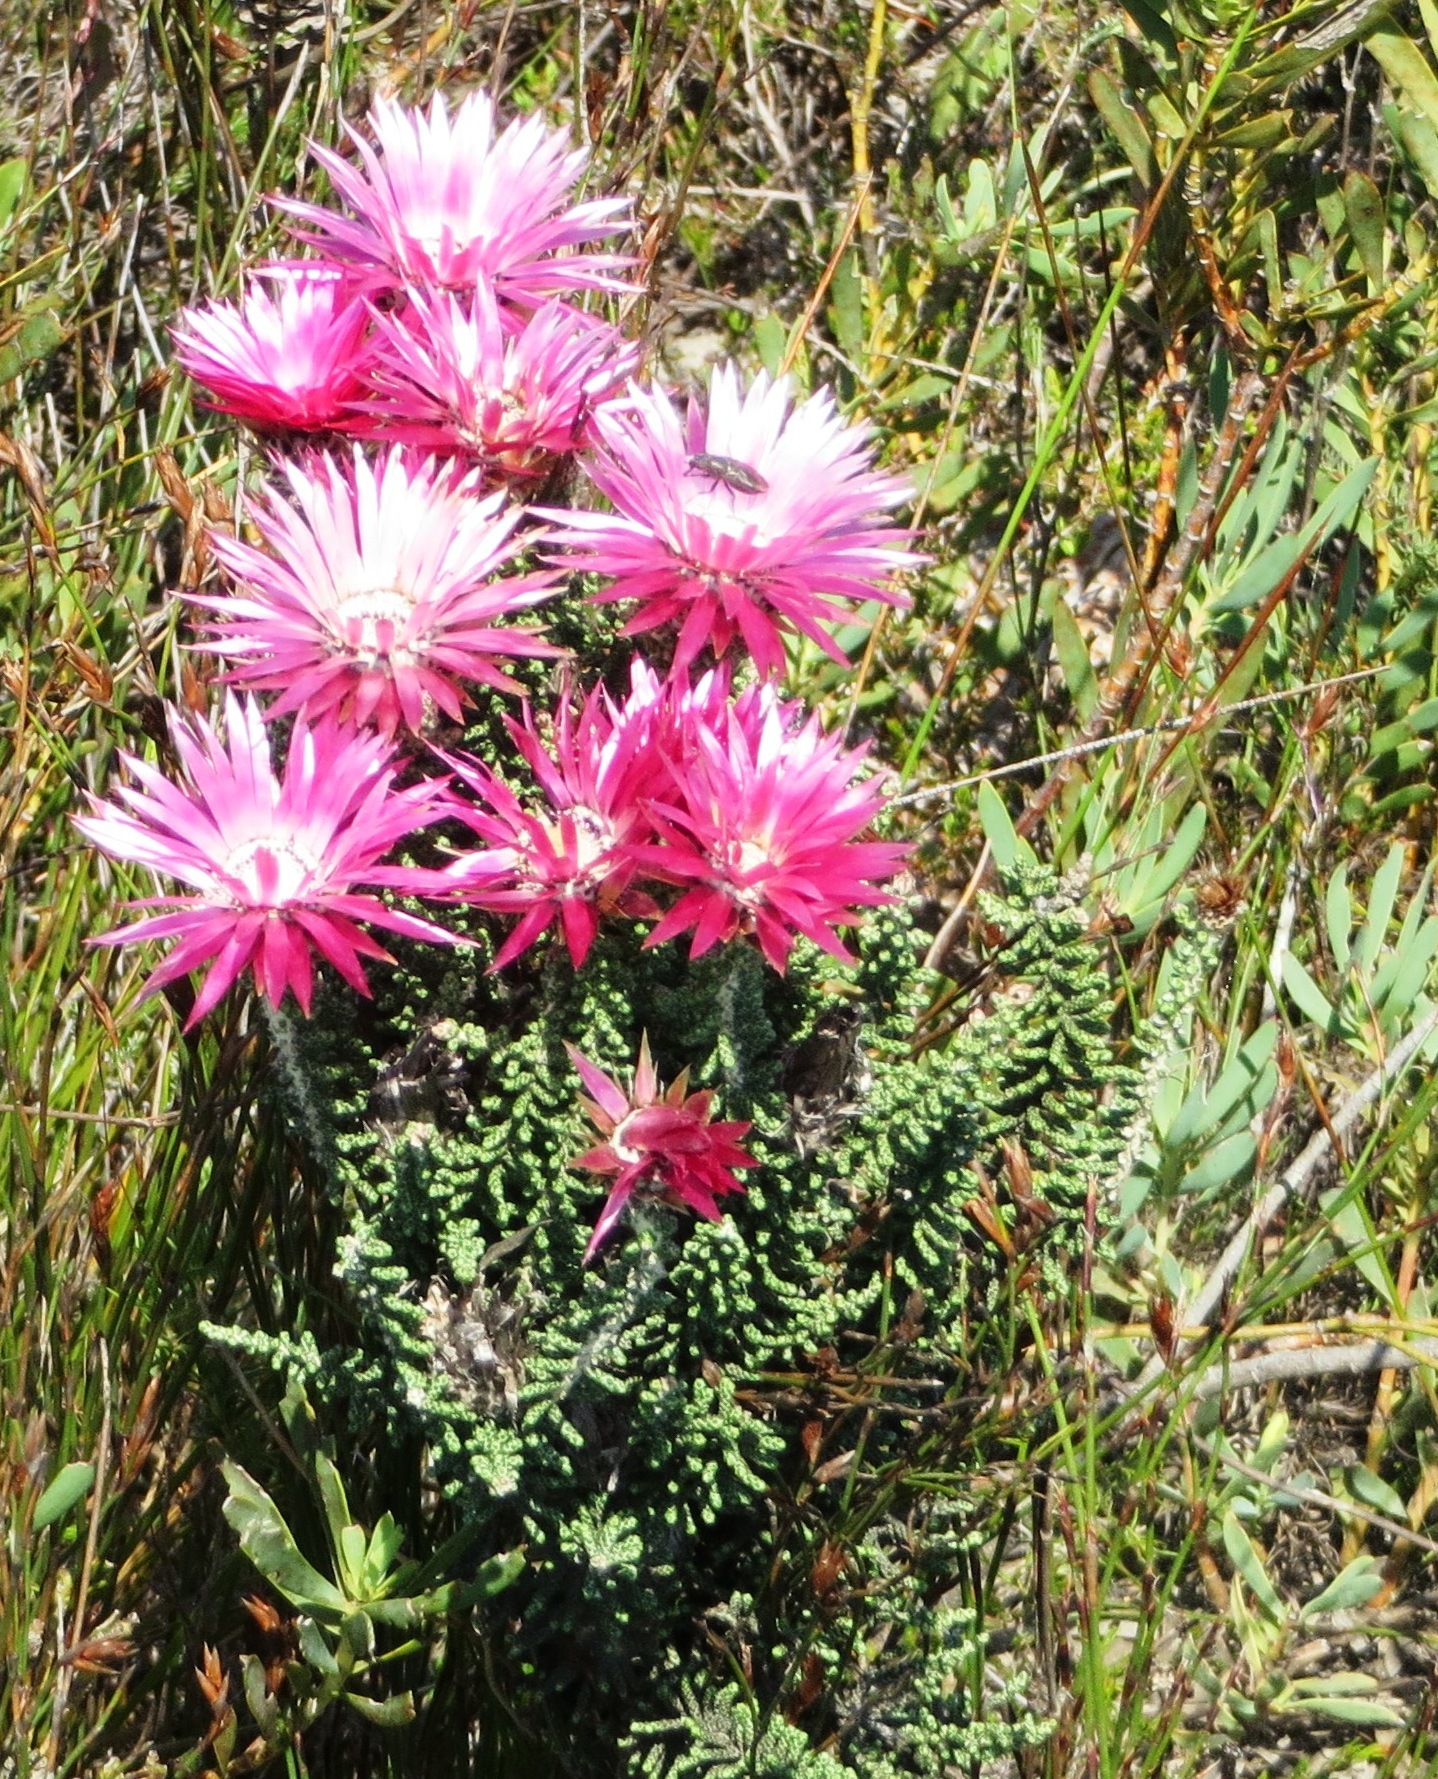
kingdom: Plantae
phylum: Tracheophyta
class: Magnoliopsida
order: Asterales
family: Asteraceae
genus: Phaenocoma
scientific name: Phaenocoma prolifera
